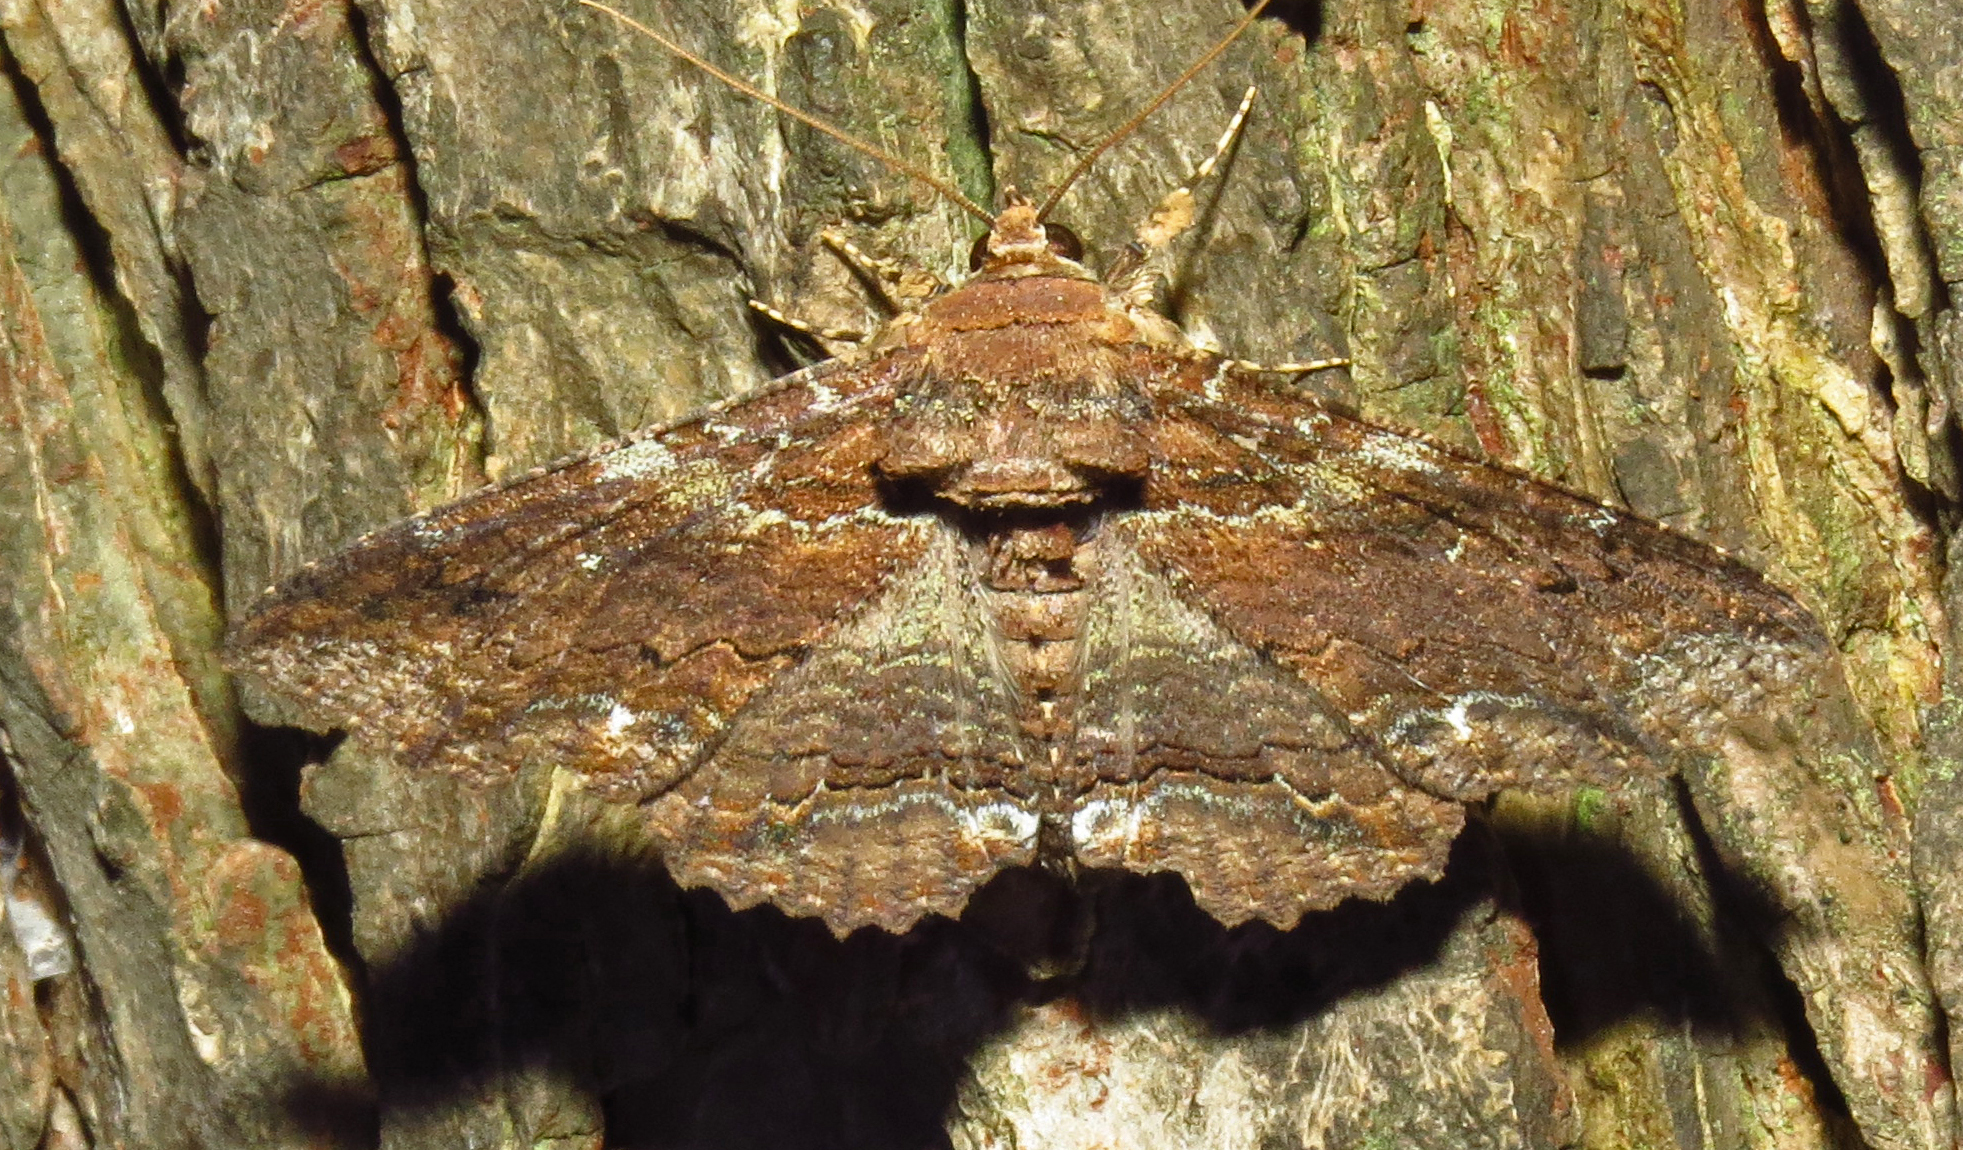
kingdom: Animalia
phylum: Arthropoda
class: Insecta
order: Lepidoptera
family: Erebidae
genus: Zale
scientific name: Zale lunata
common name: Lunate zale moth
